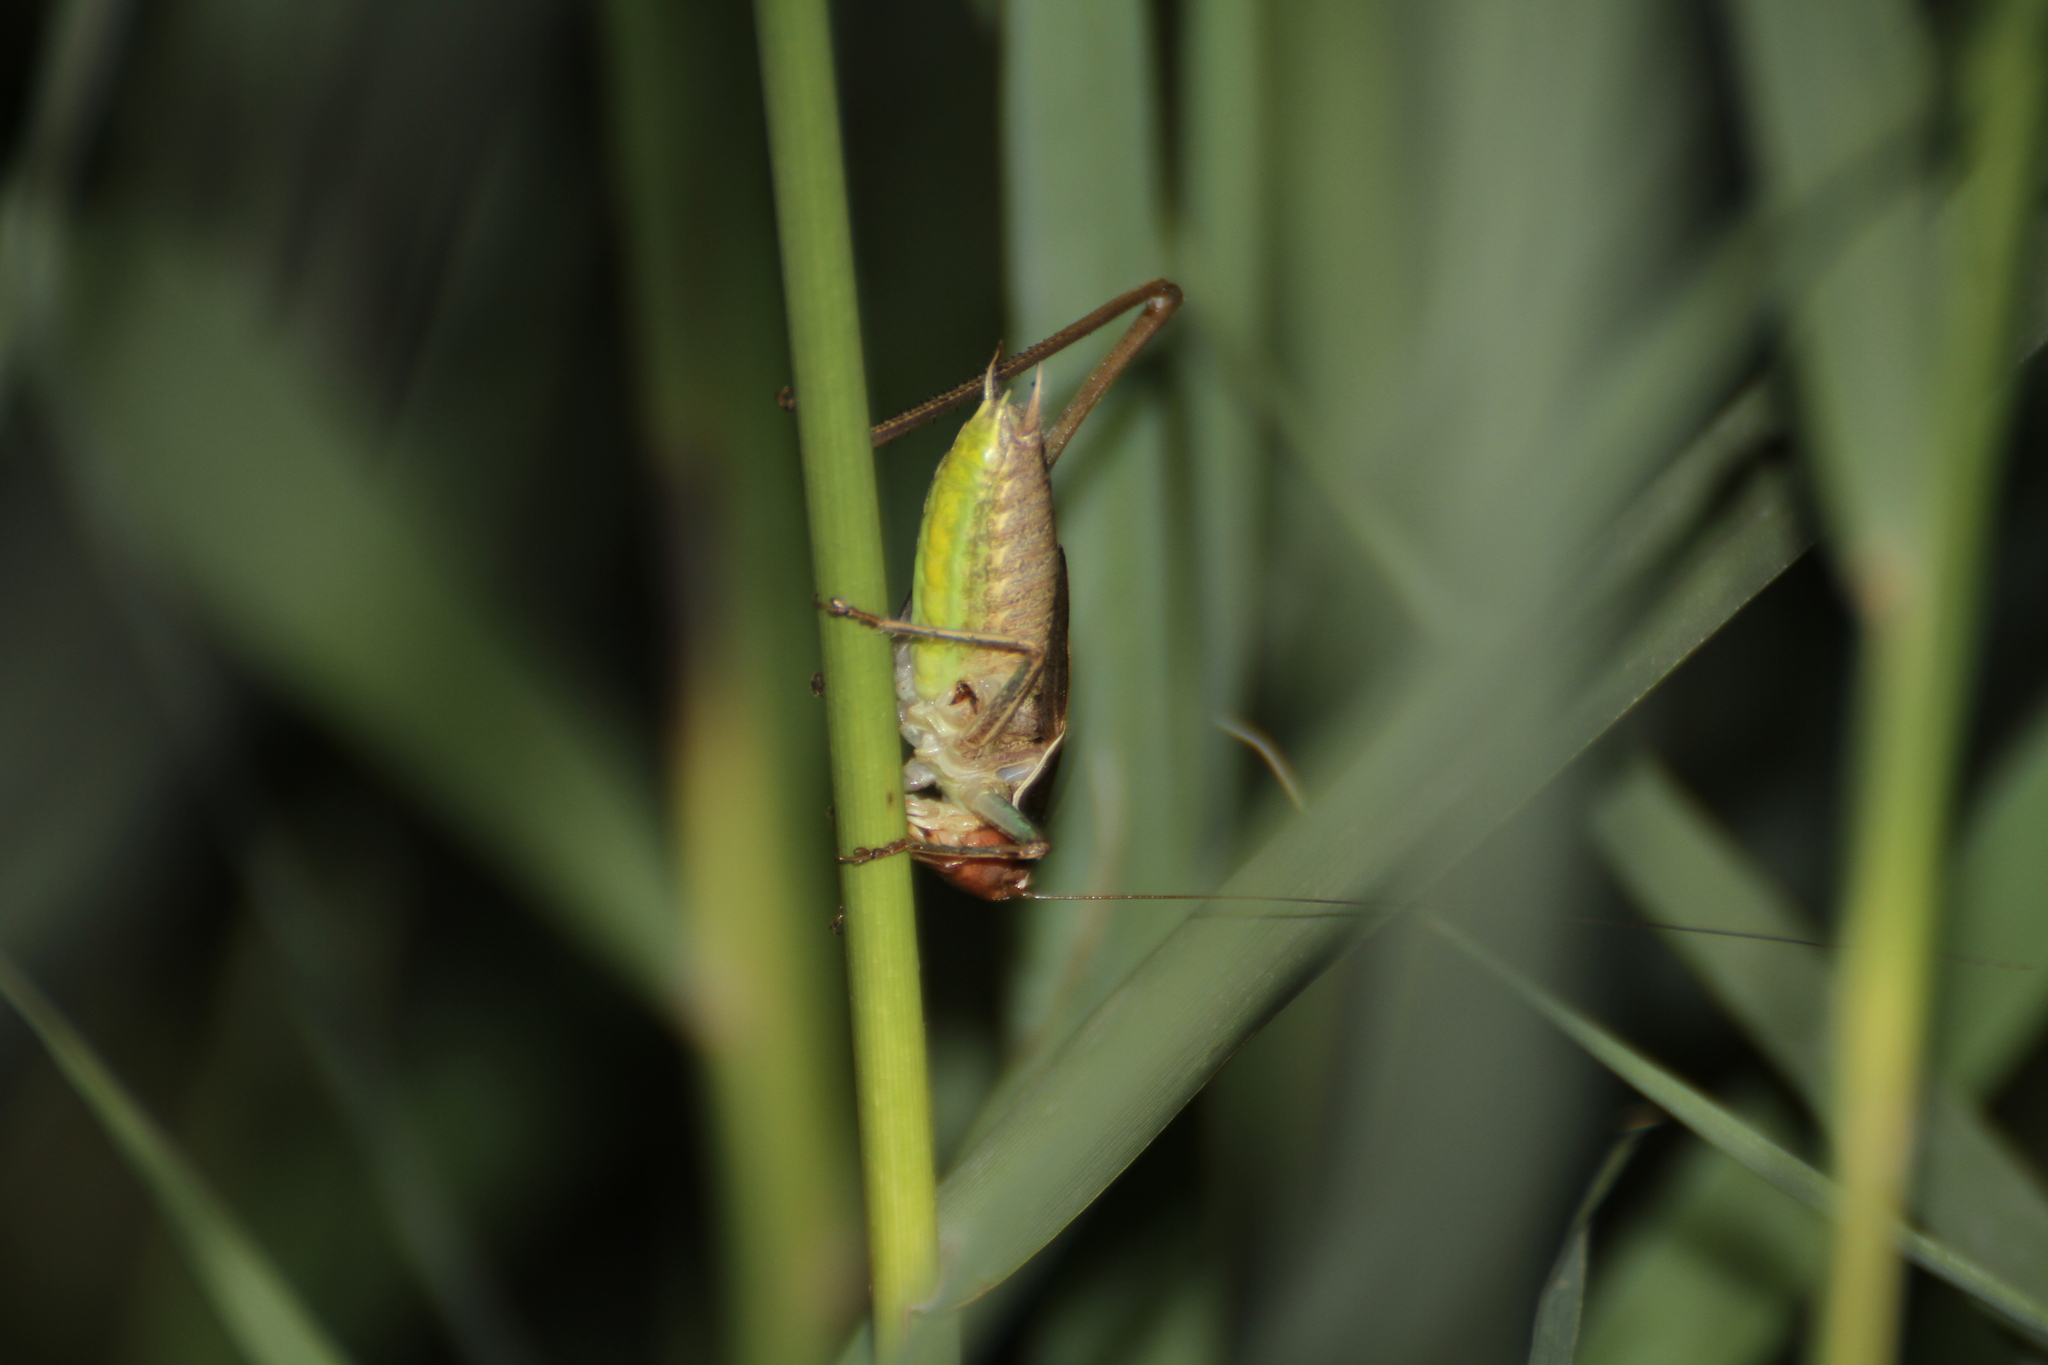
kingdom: Animalia
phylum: Arthropoda
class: Insecta
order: Orthoptera
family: Tettigoniidae
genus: Sepiana
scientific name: Sepiana sepium
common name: Sepia bush-cricket
